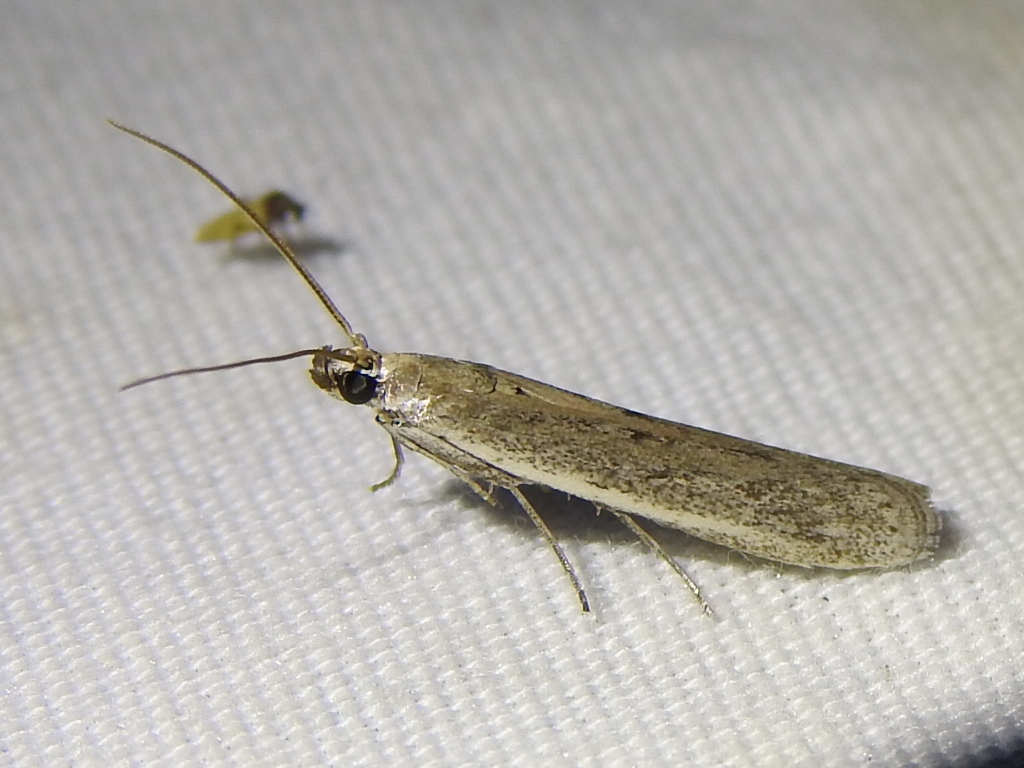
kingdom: Animalia
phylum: Arthropoda
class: Insecta
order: Lepidoptera
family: Pyralidae
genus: Homoeosoma
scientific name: Homoeosoma electella
